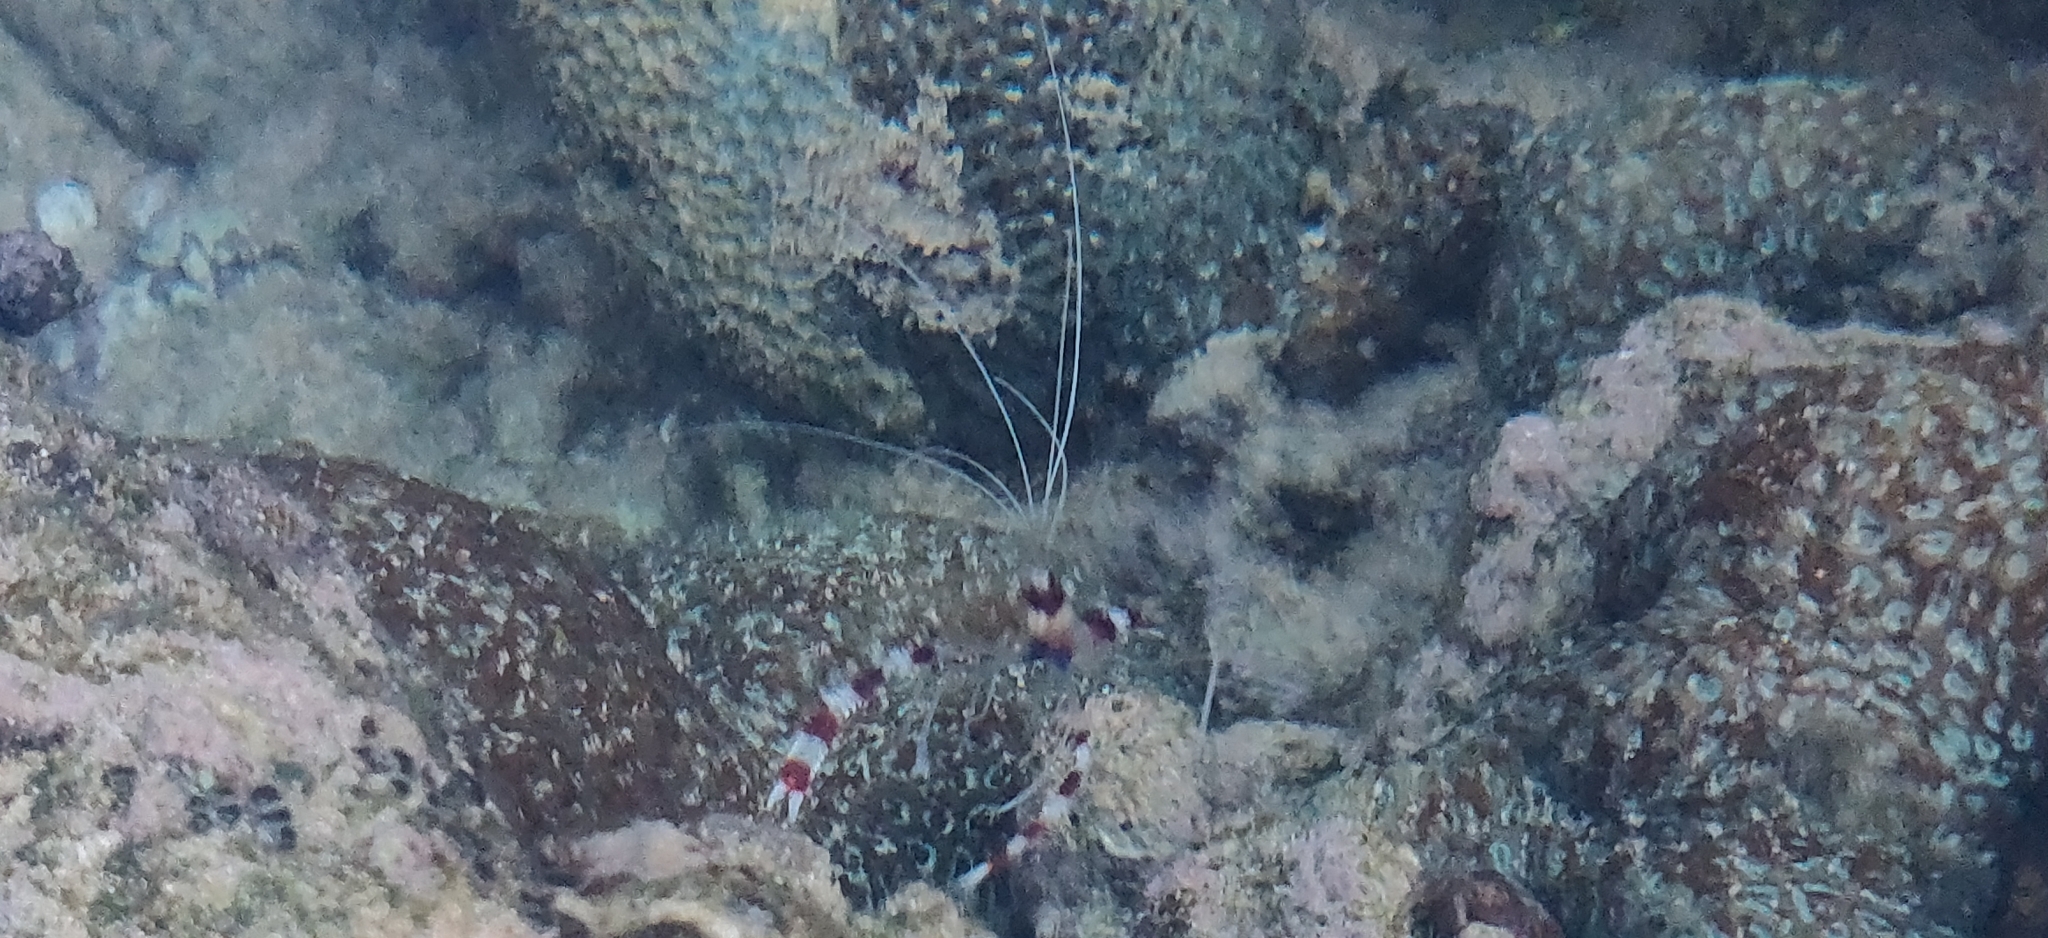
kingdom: Animalia
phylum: Arthropoda
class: Malacostraca
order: Decapoda
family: Stenopodidae
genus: Stenopus
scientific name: Stenopus hispidus
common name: Banded coral shrimp
